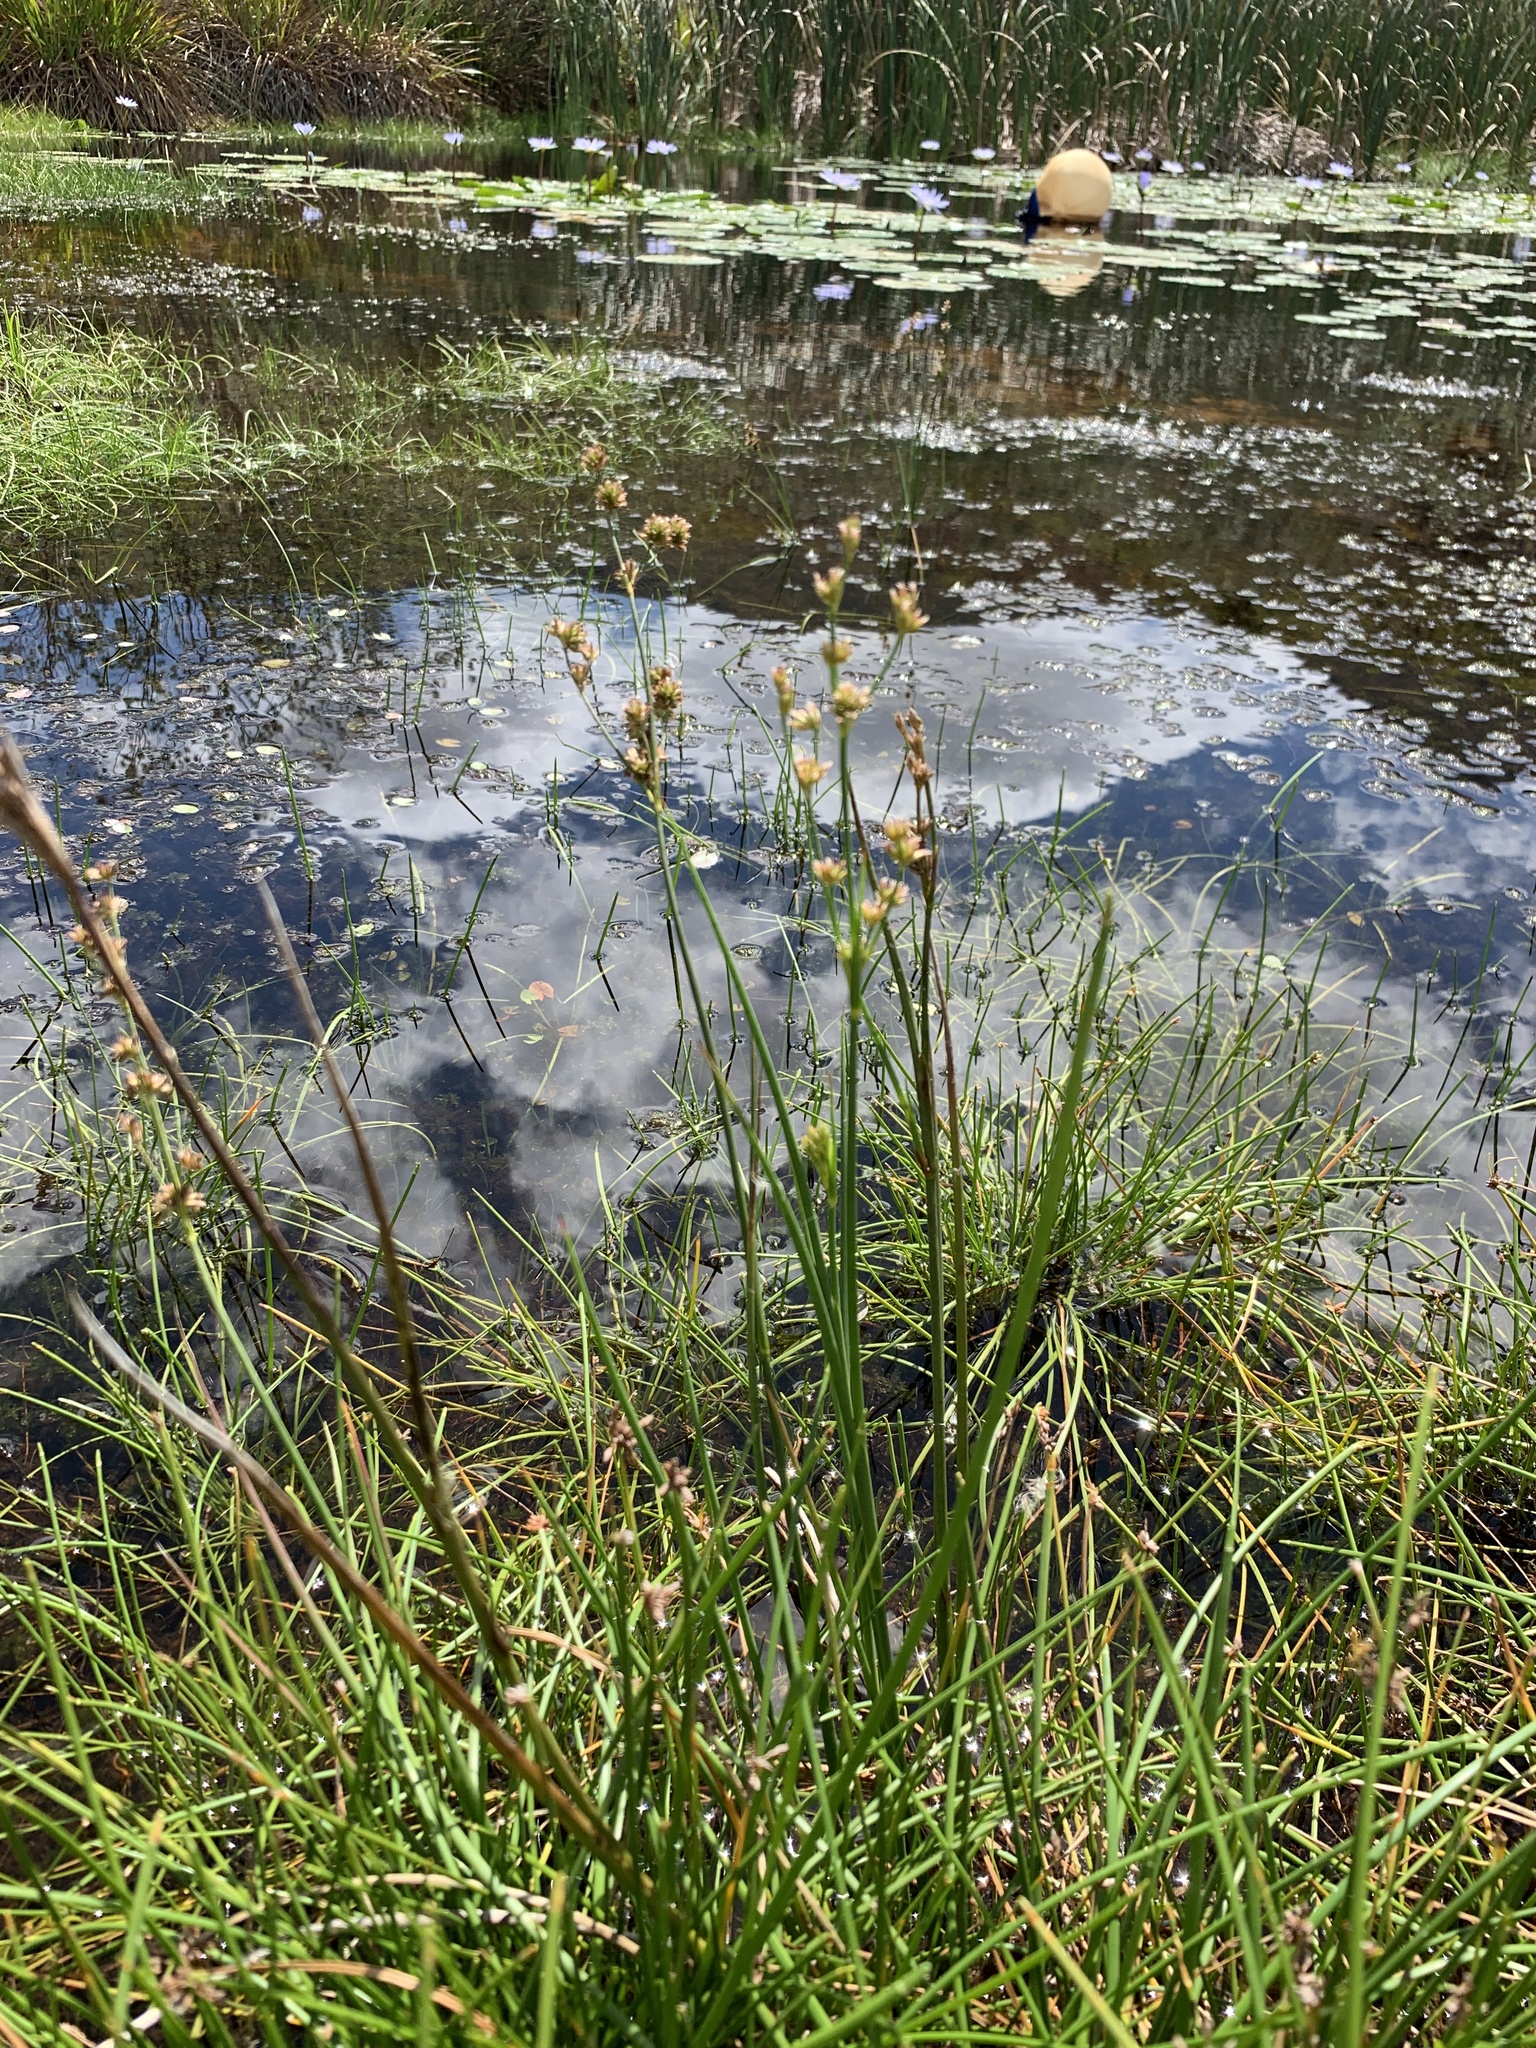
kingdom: Plantae
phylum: Tracheophyta
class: Liliopsida
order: Poales
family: Juncaceae
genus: Juncus
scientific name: Juncus oxycarpus
